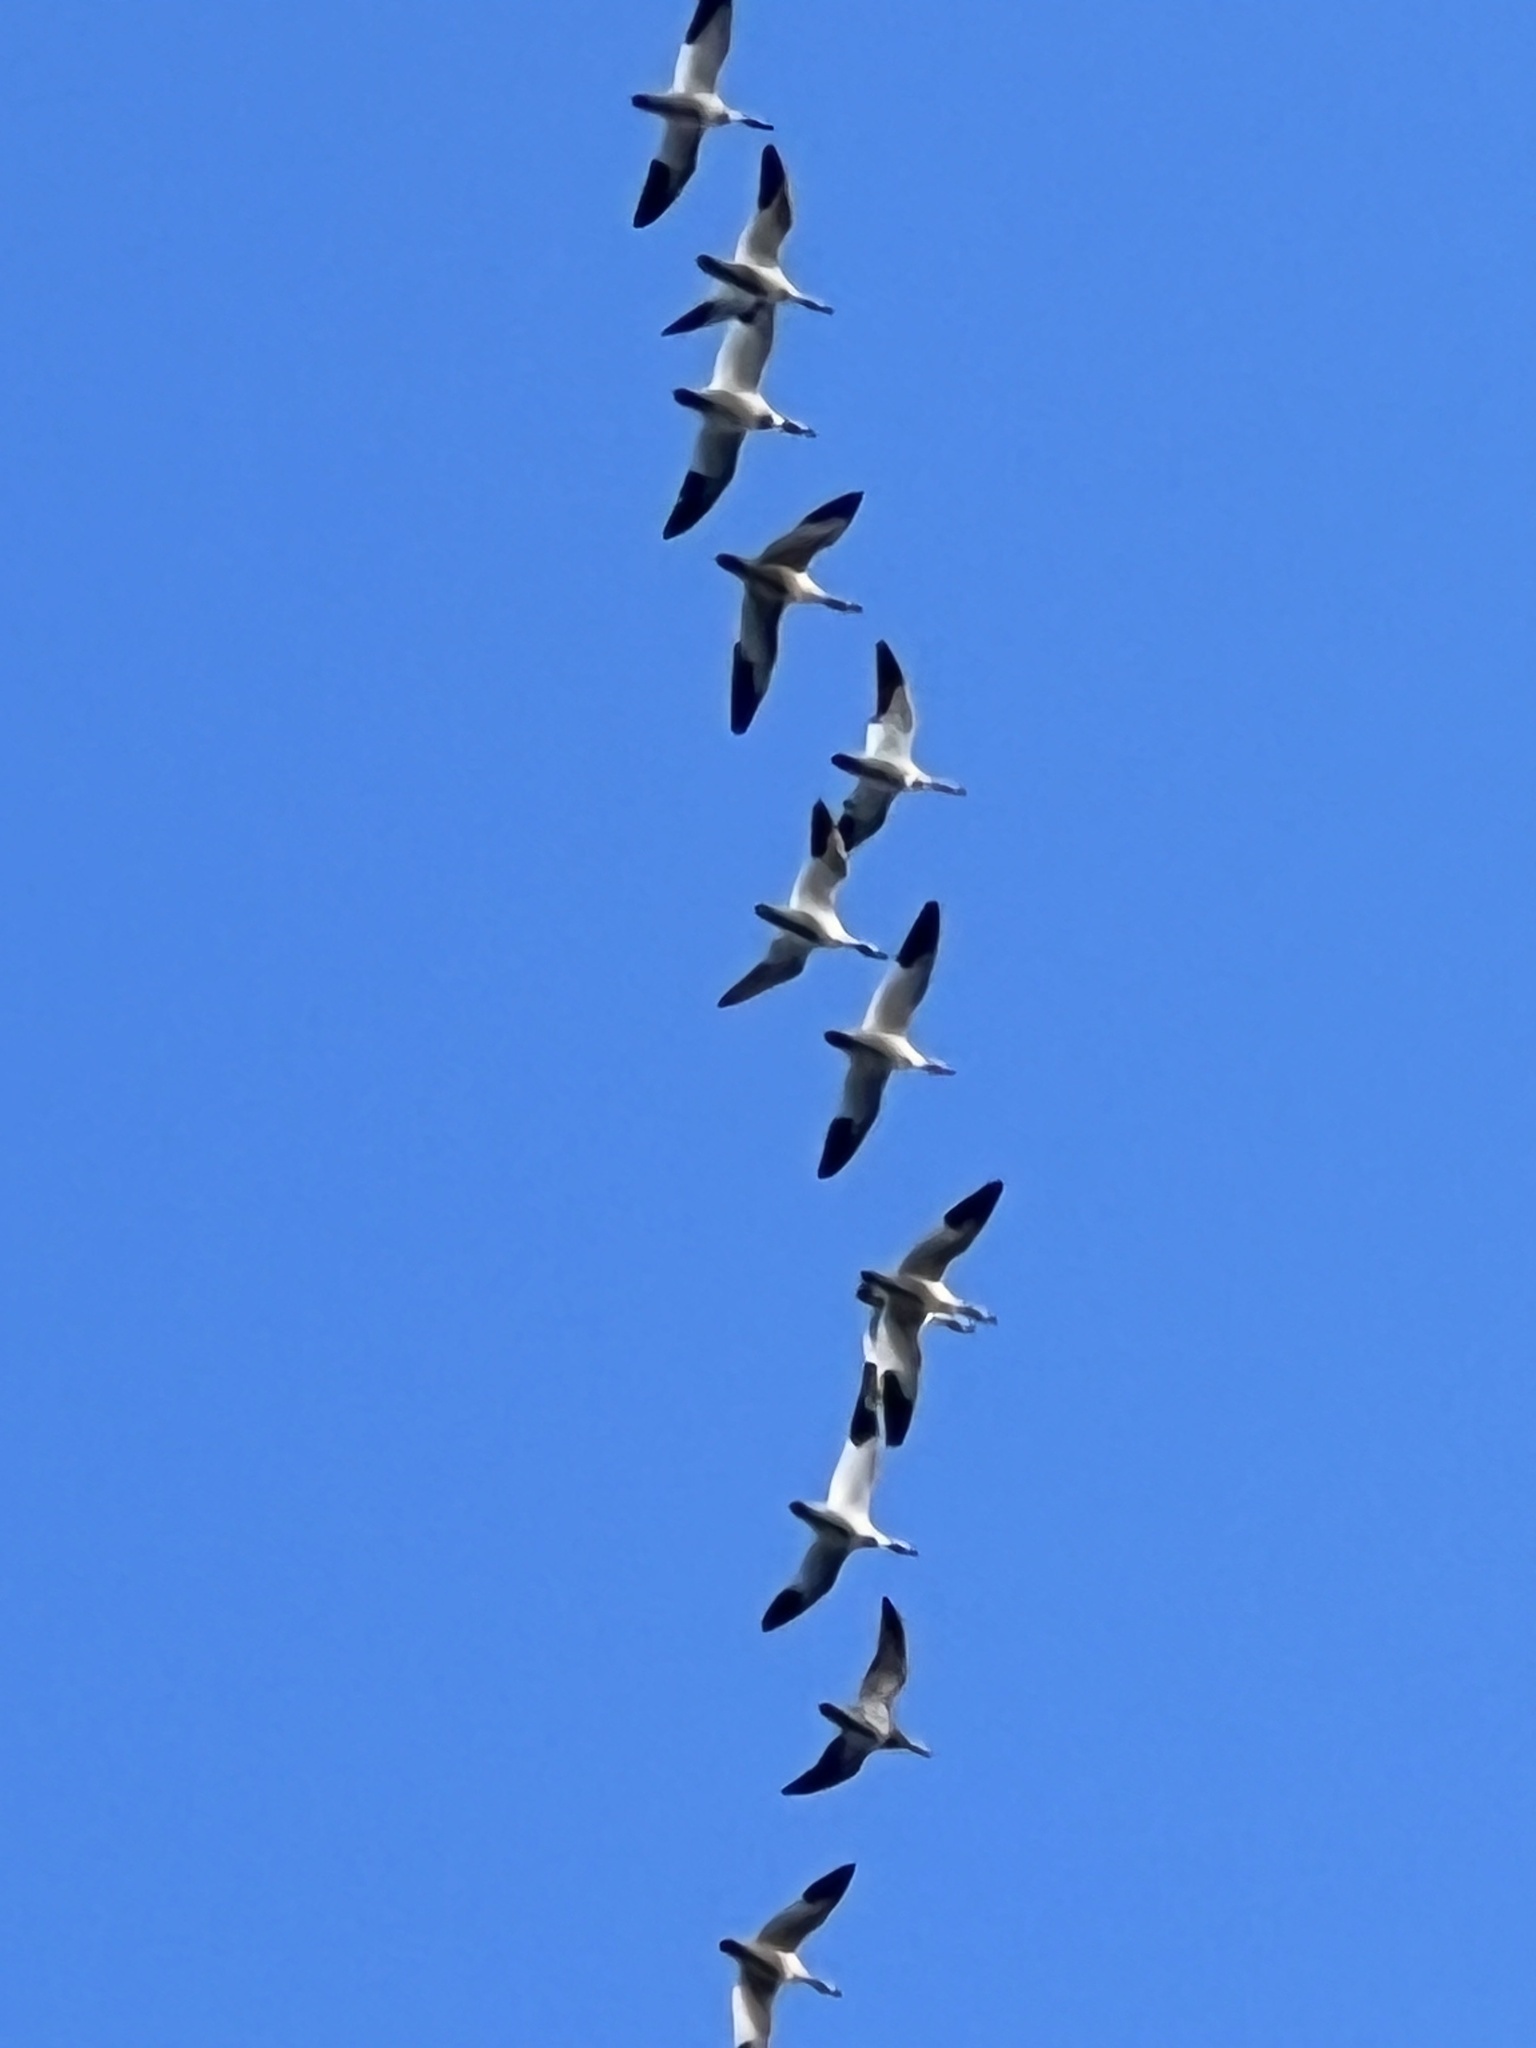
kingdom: Animalia
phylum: Chordata
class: Aves
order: Anseriformes
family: Anatidae
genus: Anser
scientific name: Anser caerulescens
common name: Snow goose
